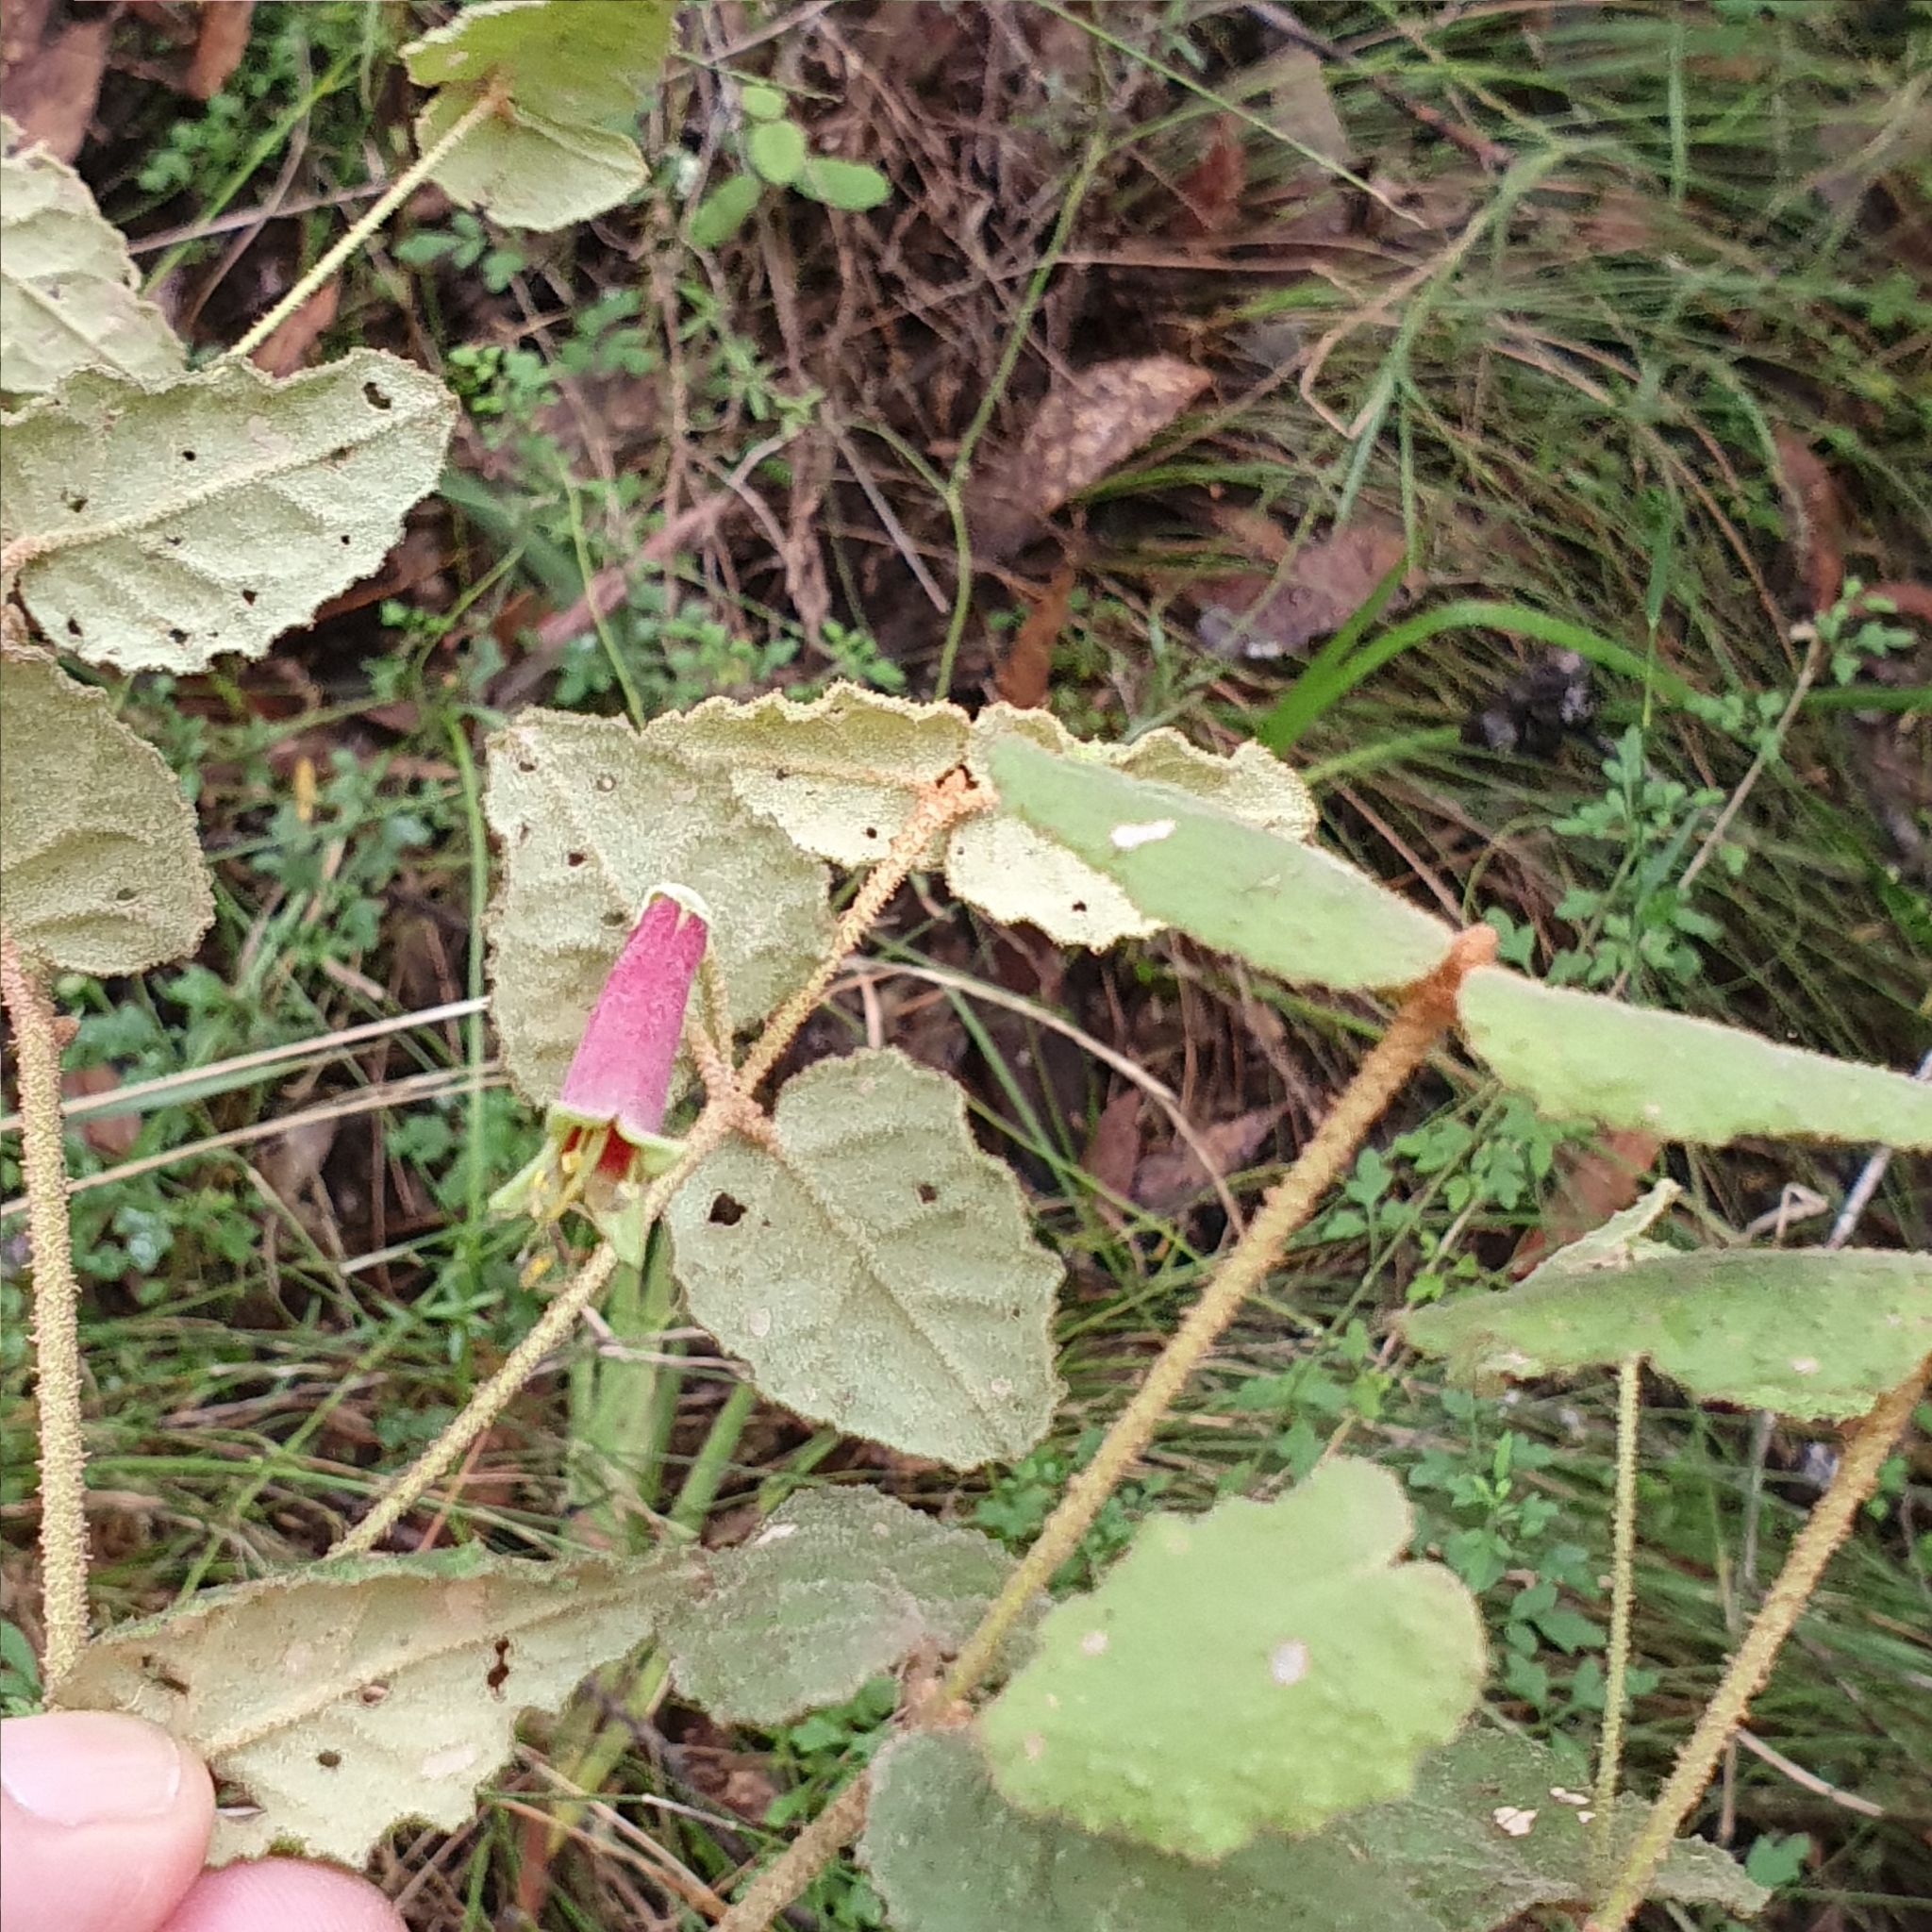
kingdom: Plantae
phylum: Tracheophyta
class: Magnoliopsida
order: Sapindales
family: Rutaceae
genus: Correa
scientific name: Correa reflexa
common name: Common correa
